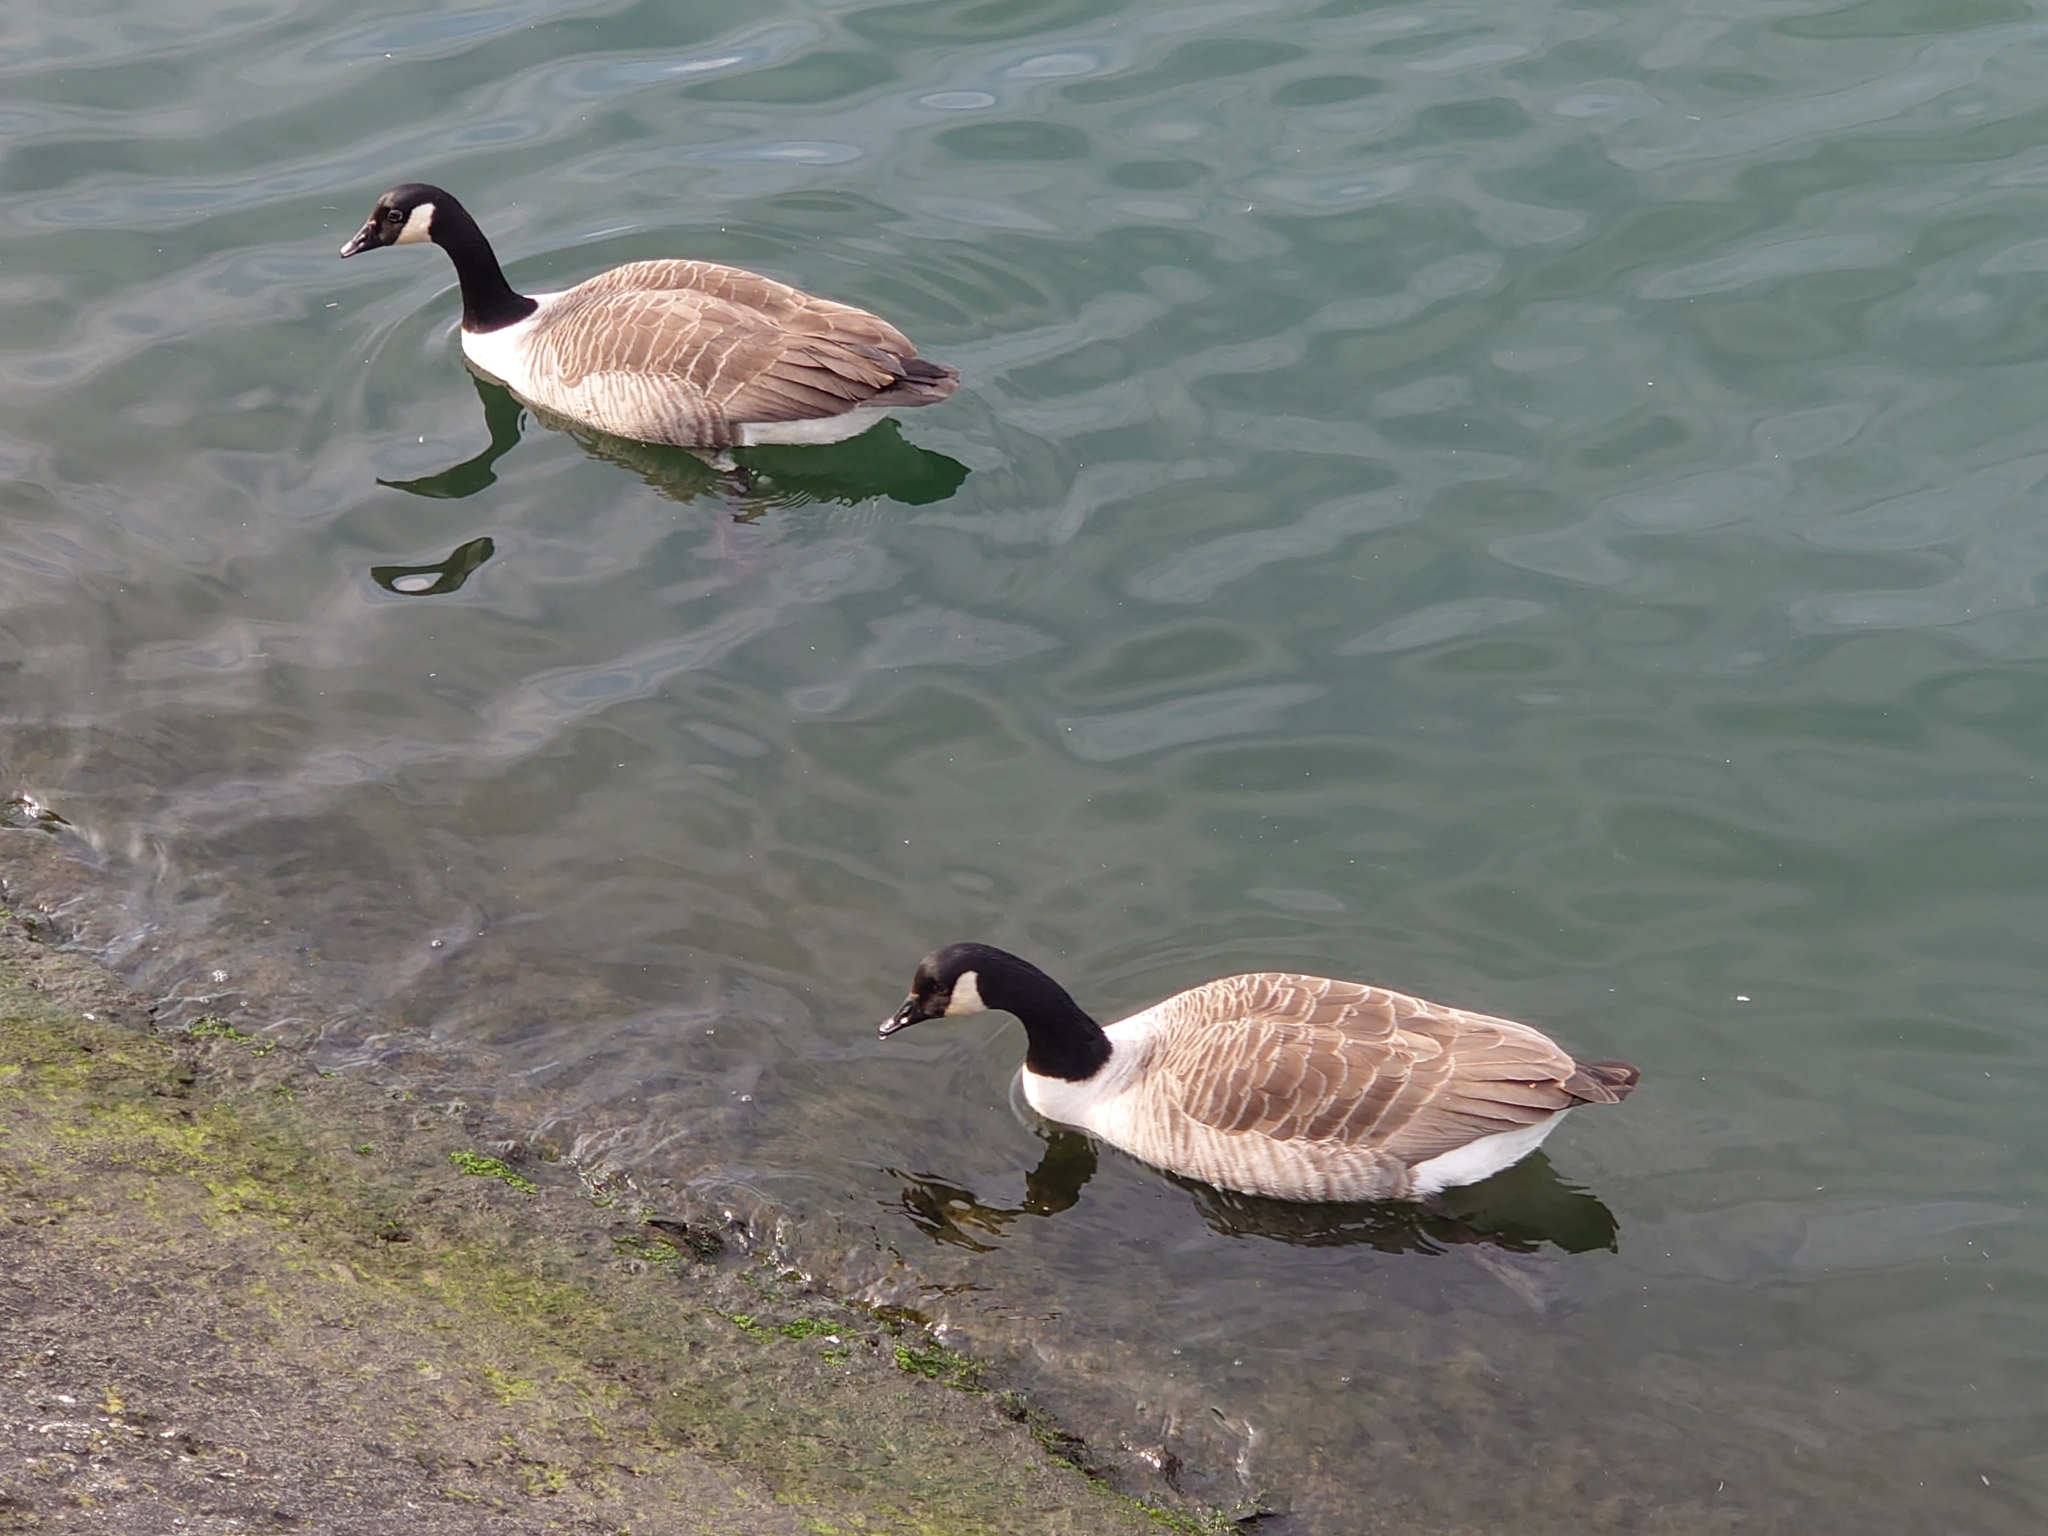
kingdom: Animalia
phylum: Chordata
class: Aves
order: Anseriformes
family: Anatidae
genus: Branta
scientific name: Branta canadensis
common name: Canada goose
